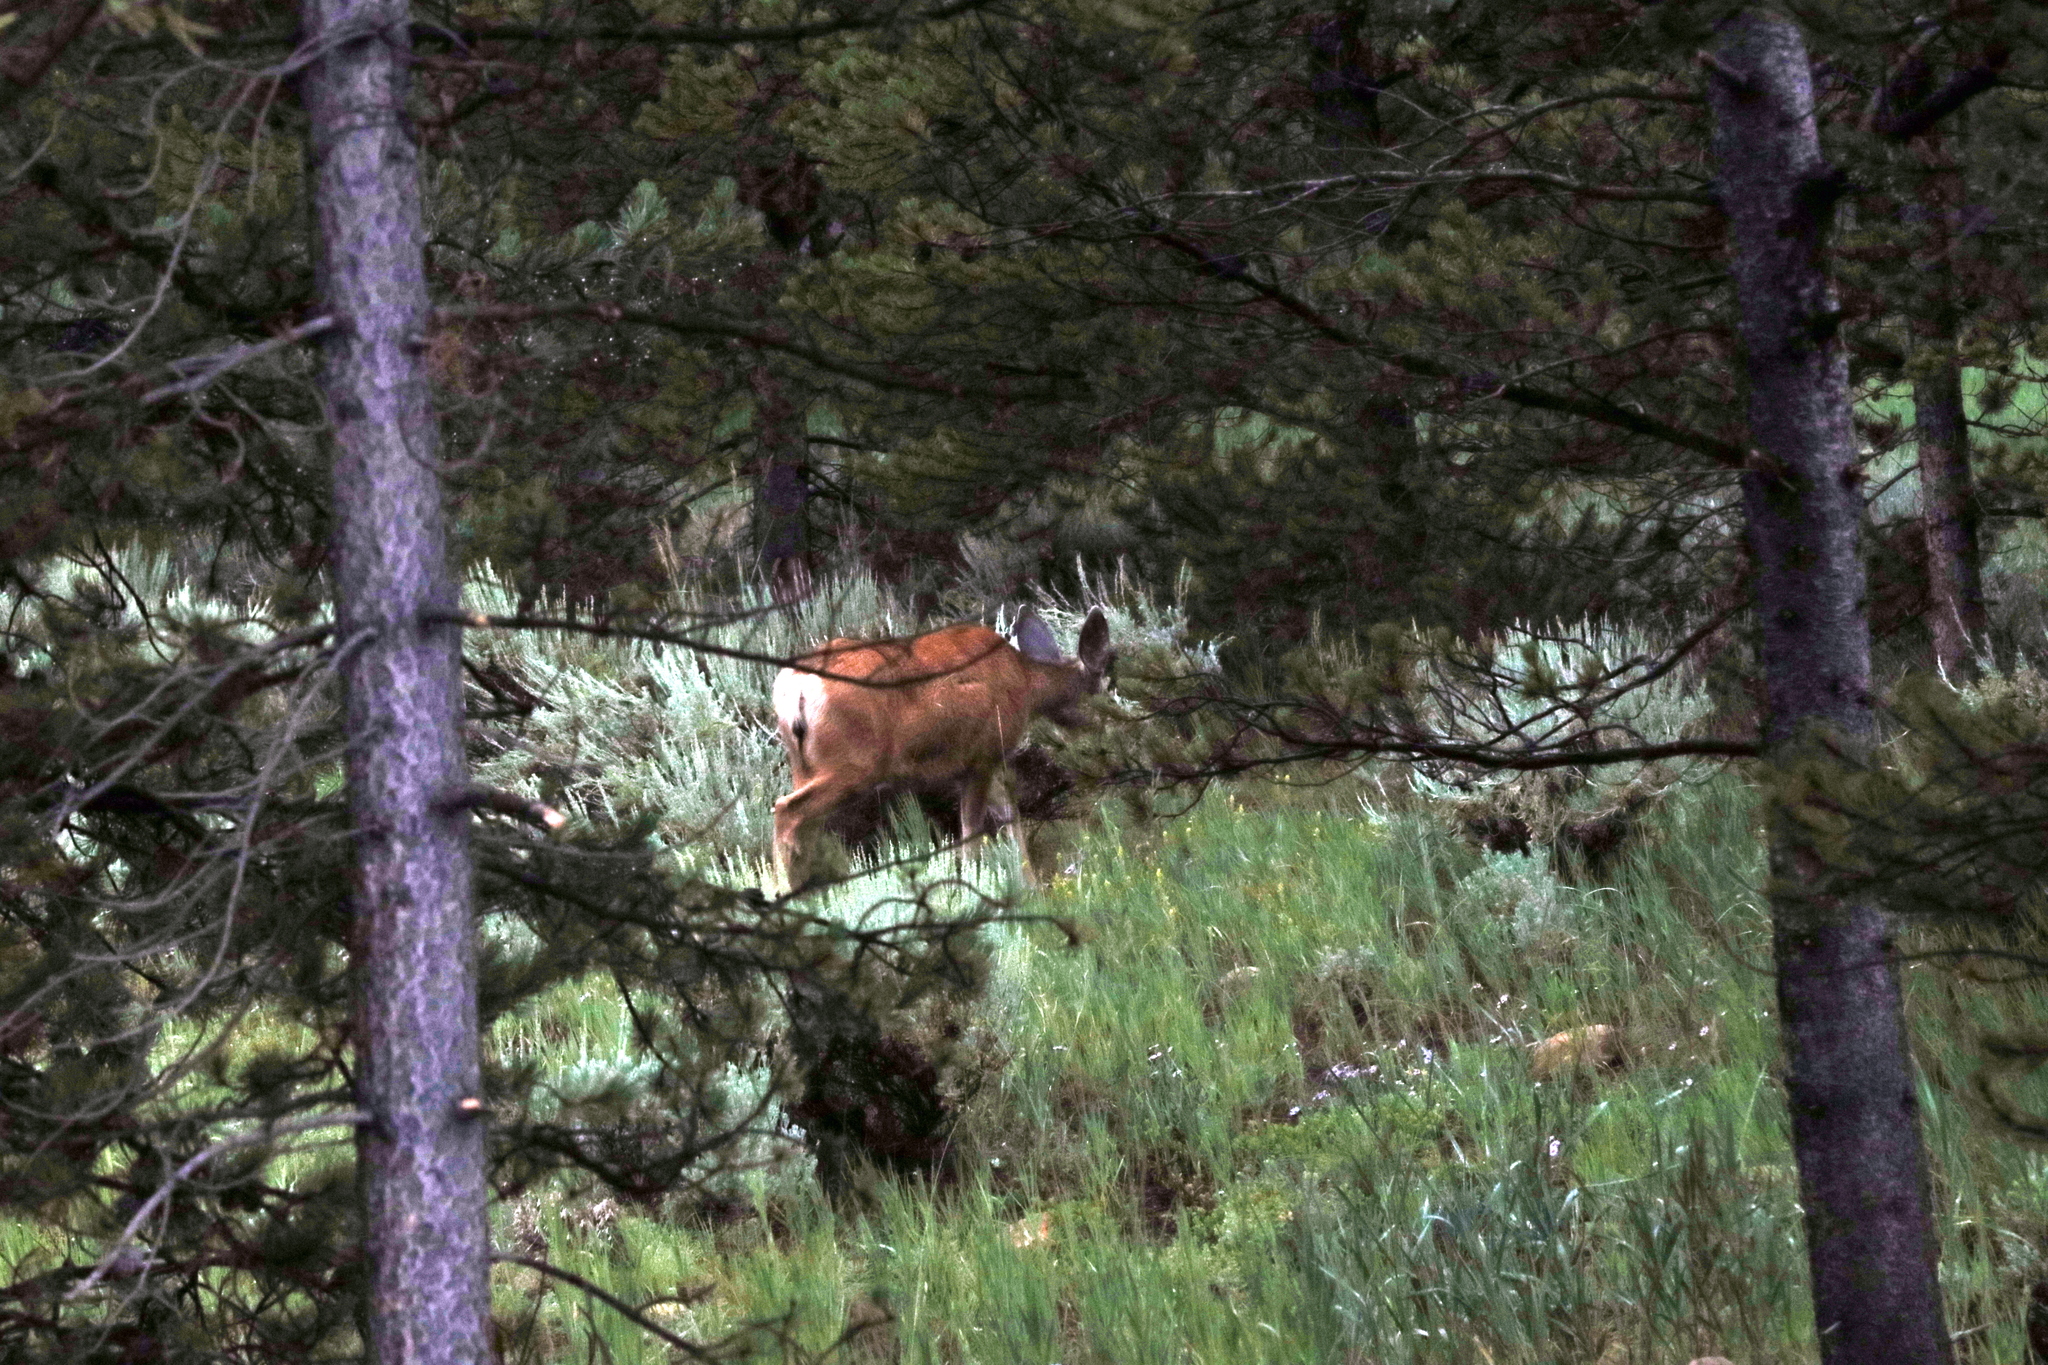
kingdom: Animalia
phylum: Chordata
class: Mammalia
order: Artiodactyla
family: Cervidae
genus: Odocoileus
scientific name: Odocoileus hemionus
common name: Mule deer
